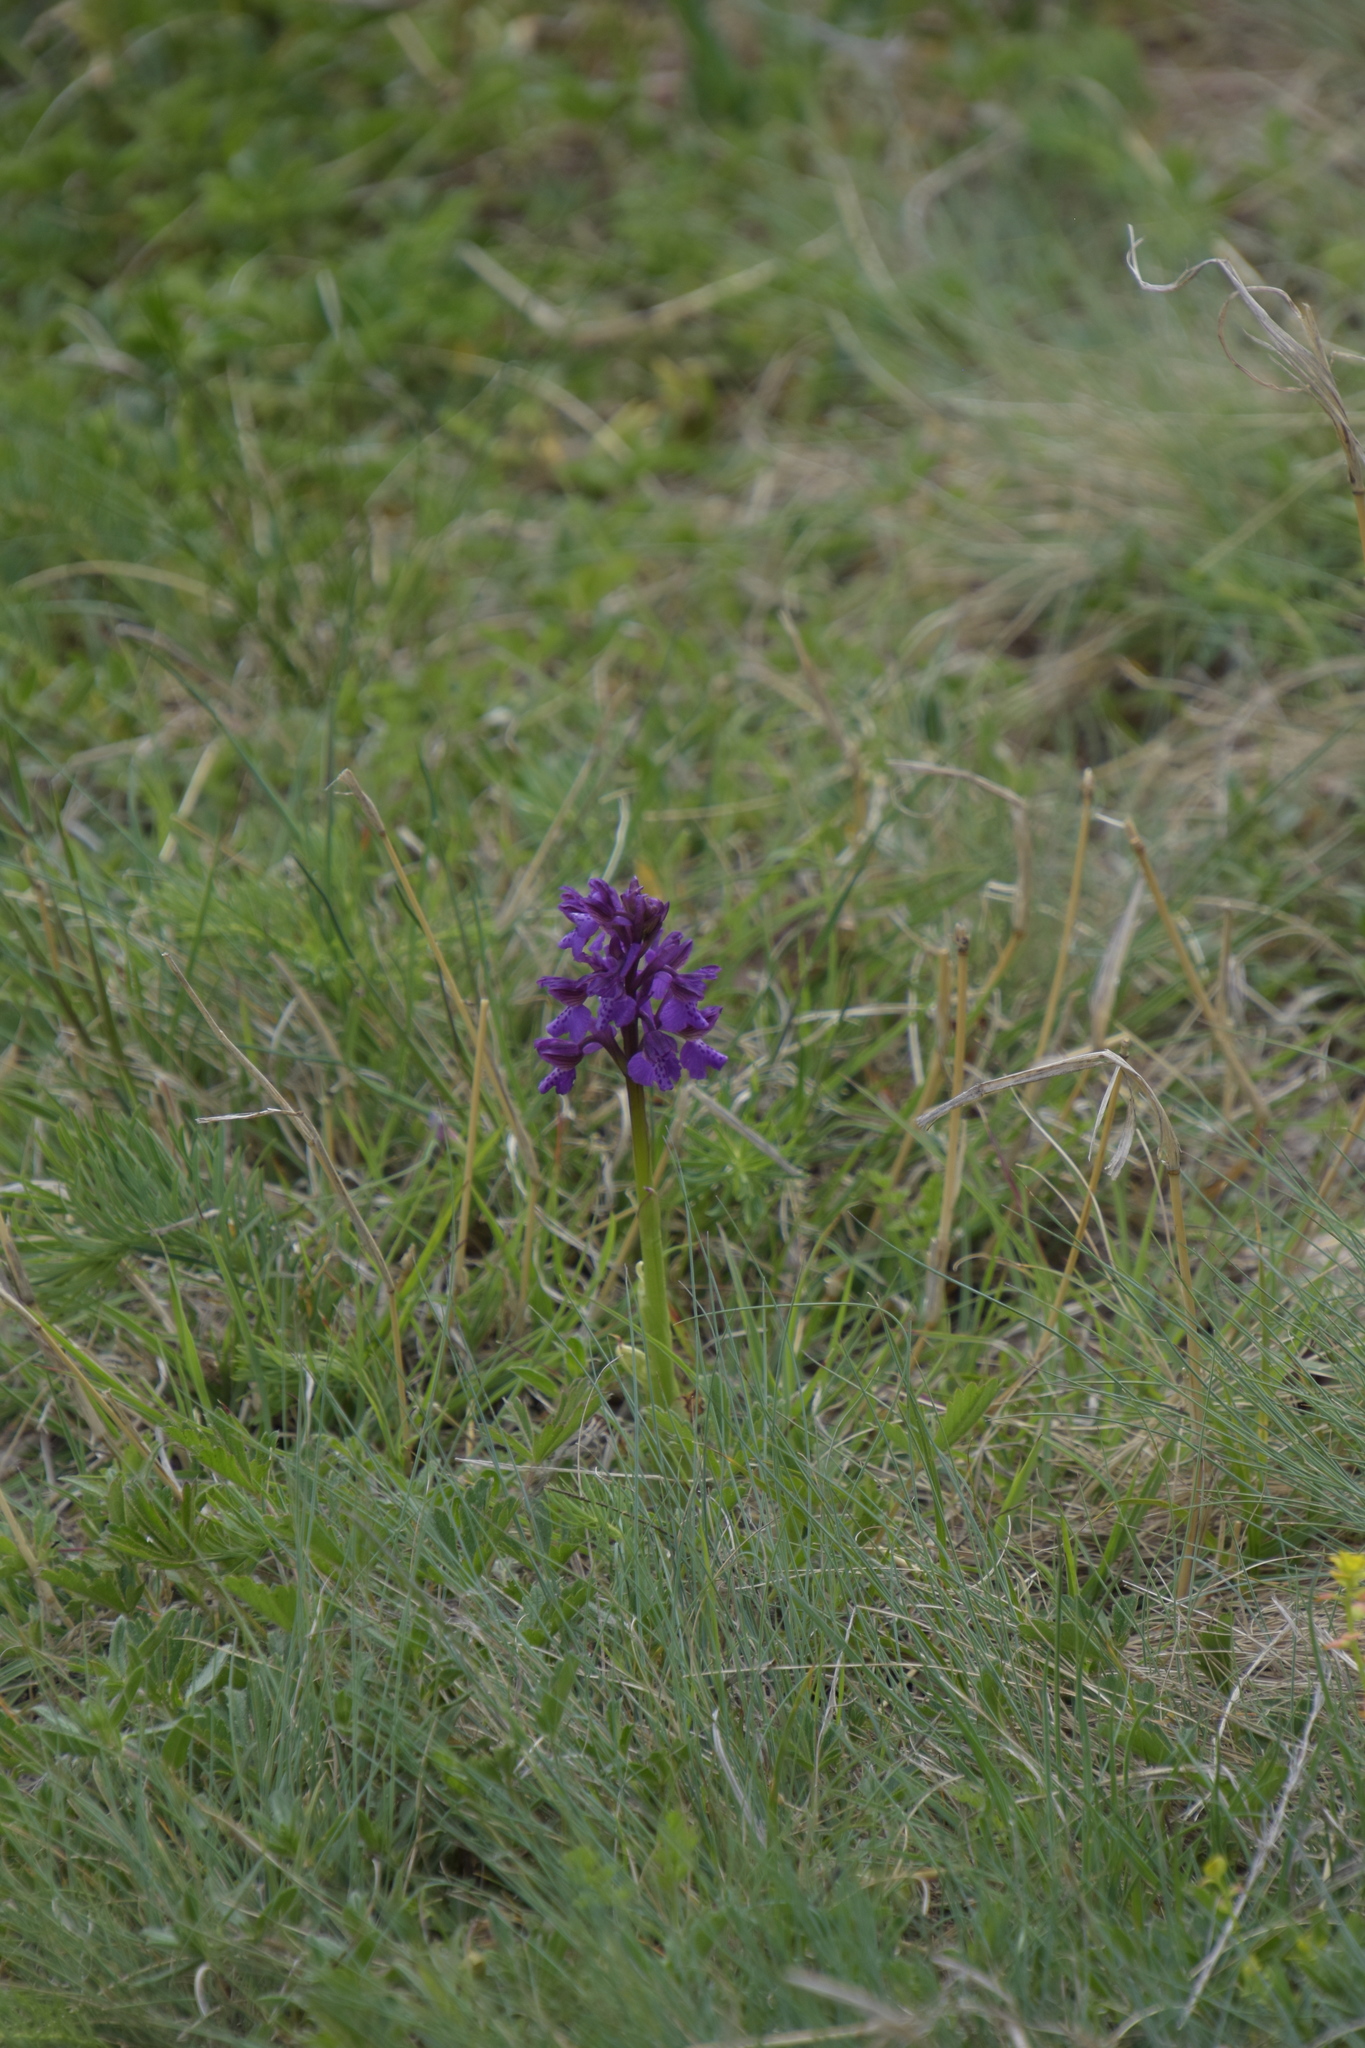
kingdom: Plantae
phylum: Tracheophyta
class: Liliopsida
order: Asparagales
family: Orchidaceae
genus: Anacamptis
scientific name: Anacamptis morio
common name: Green-winged orchid
